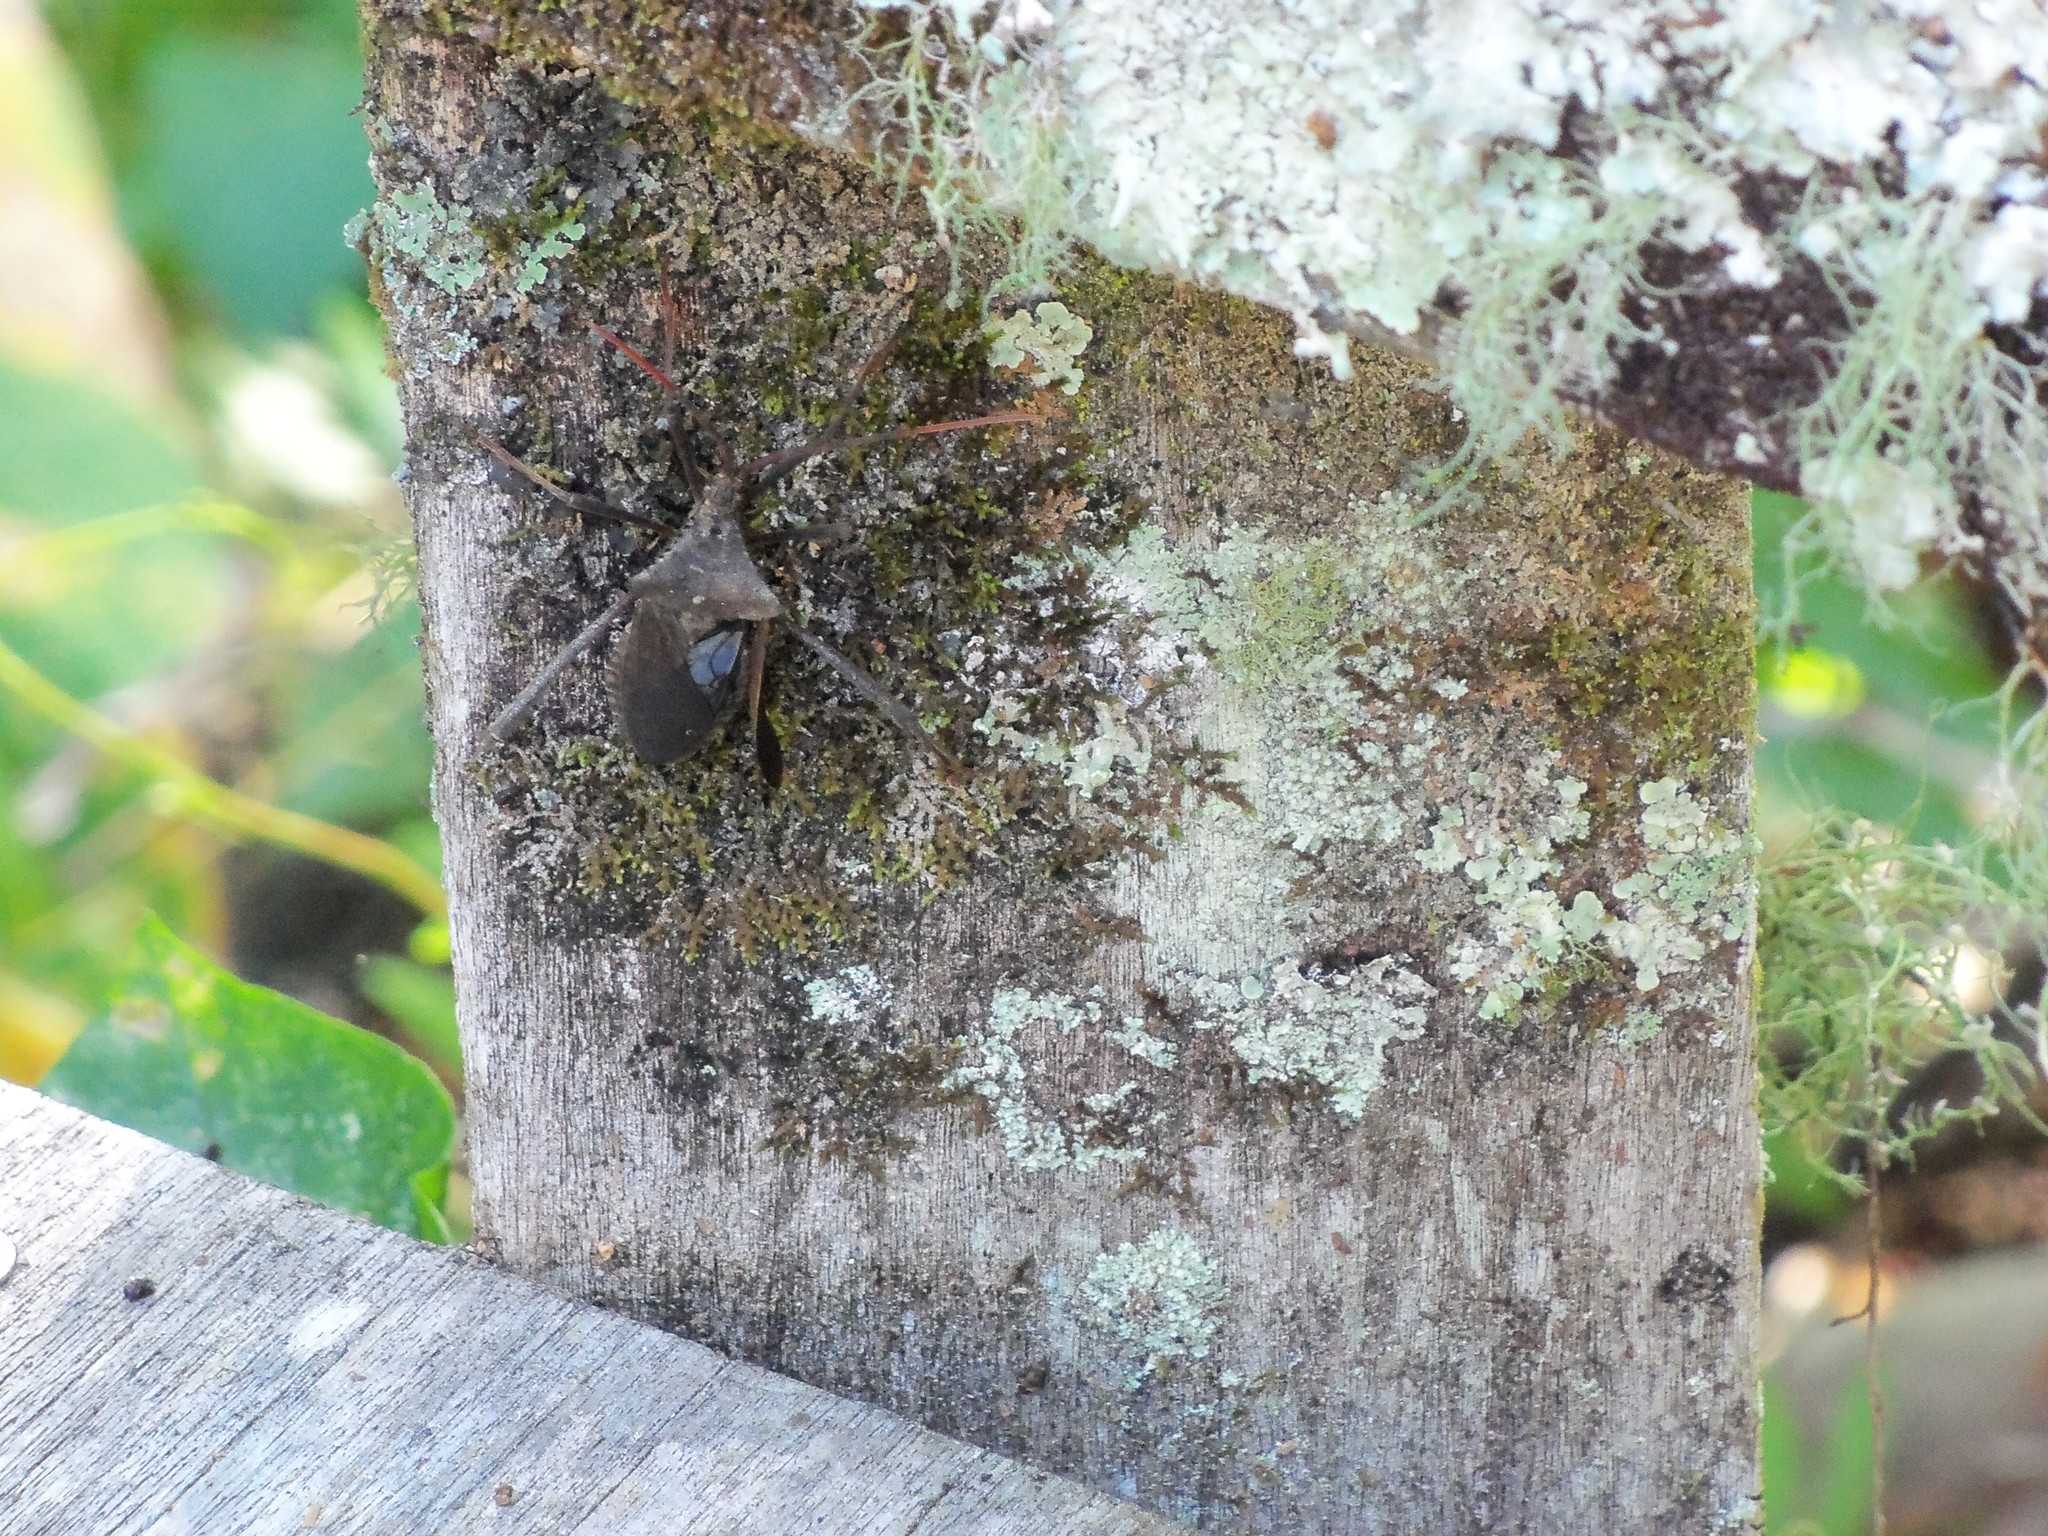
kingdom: Animalia
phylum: Arthropoda
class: Insecta
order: Hemiptera
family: Coreidae
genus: Acanthocephala
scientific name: Acanthocephala declivis
